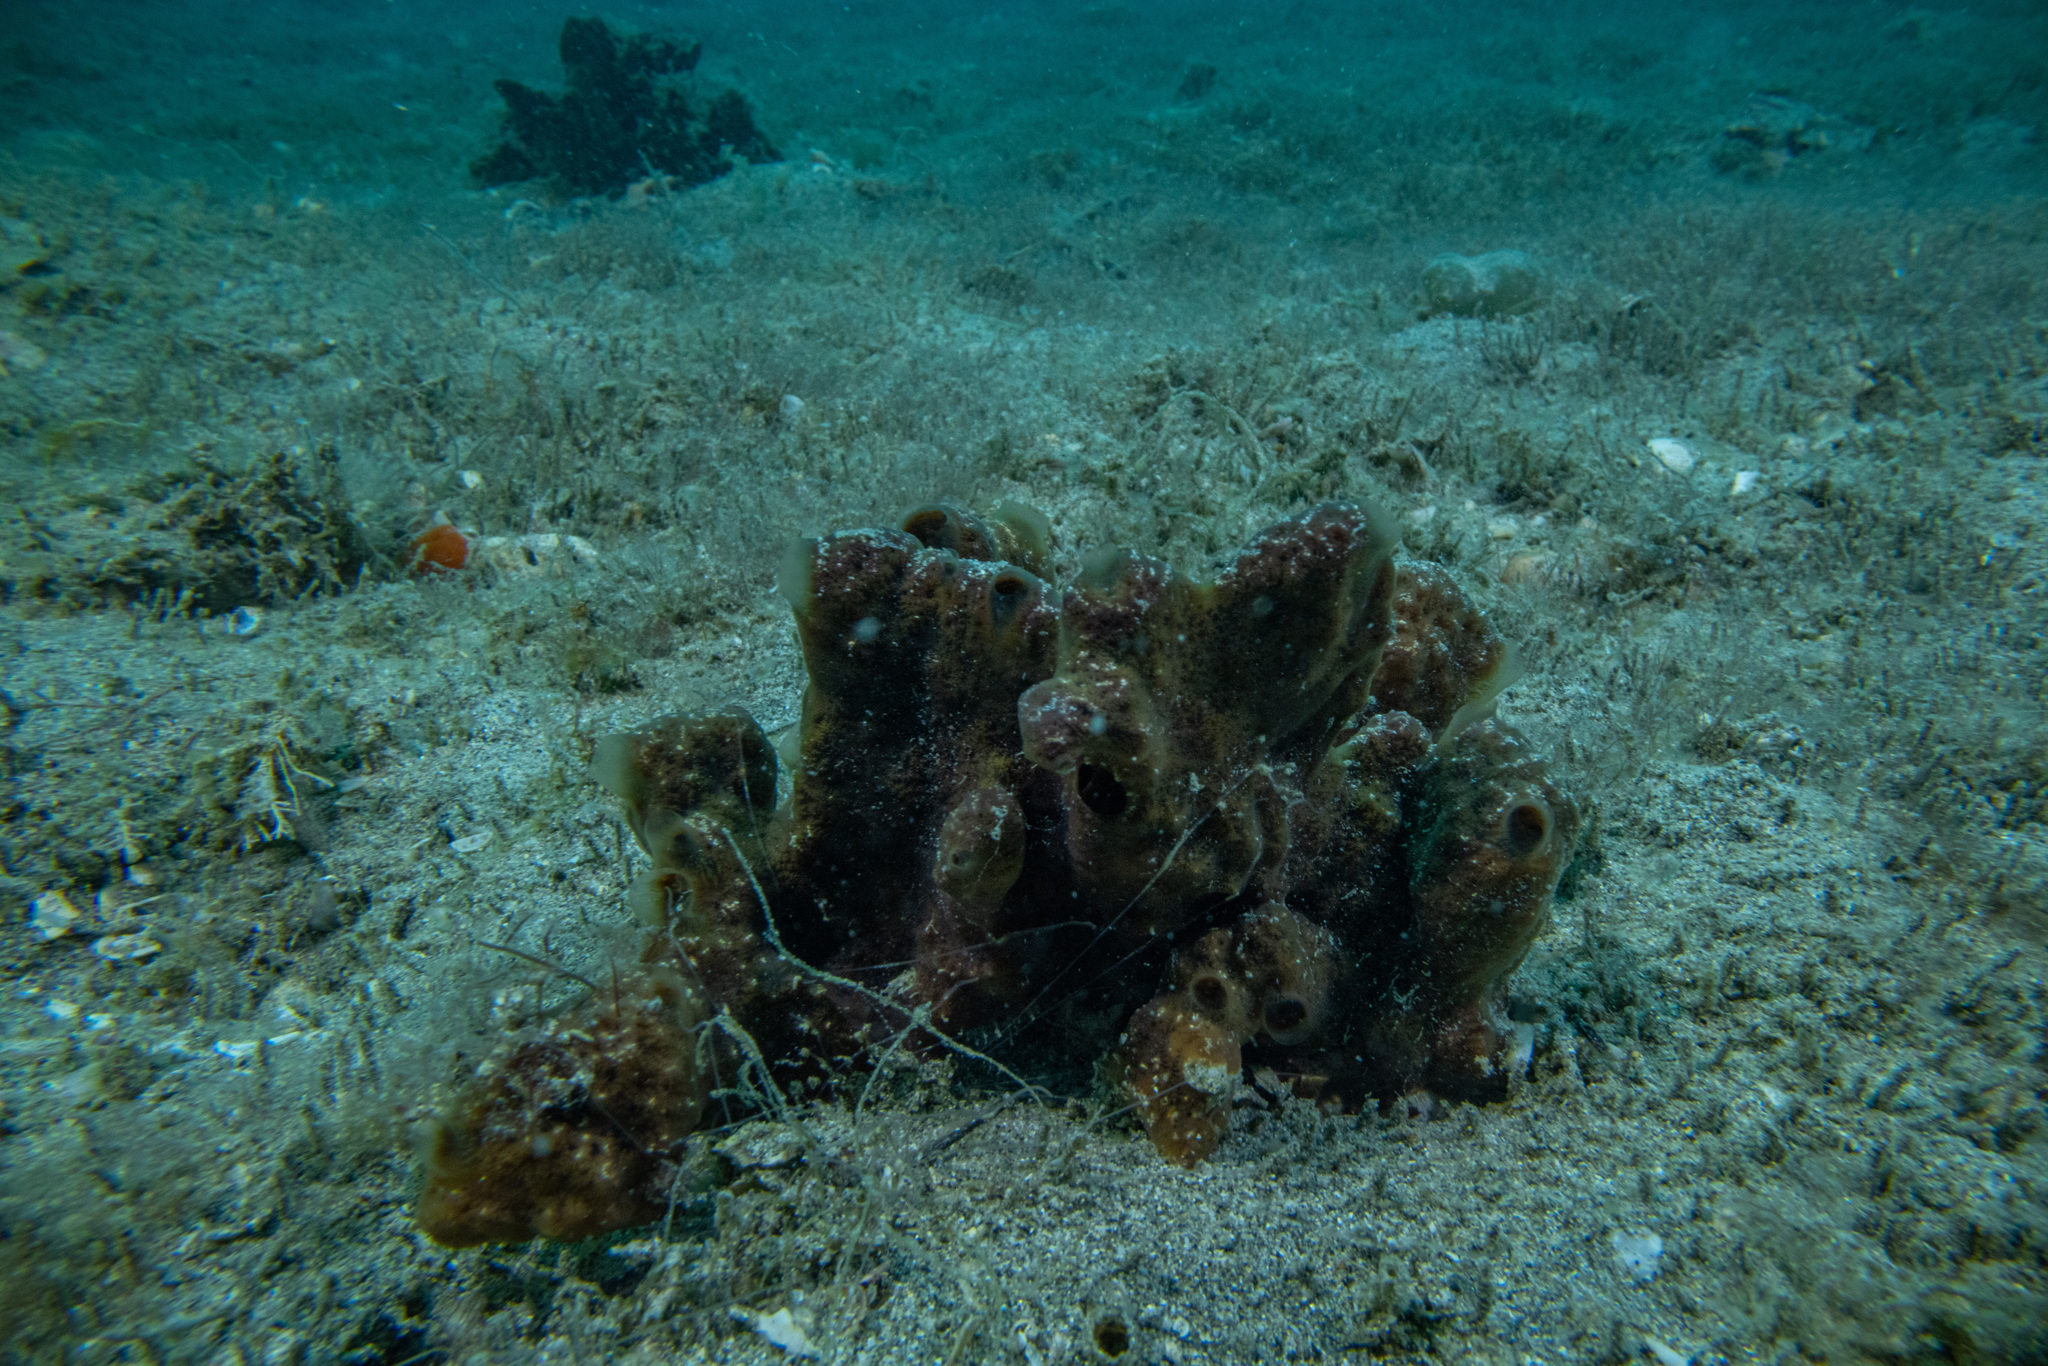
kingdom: Animalia
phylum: Porifera
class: Demospongiae
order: Poecilosclerida
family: Mycalidae
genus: Mycale
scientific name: Mycale hentscheli
